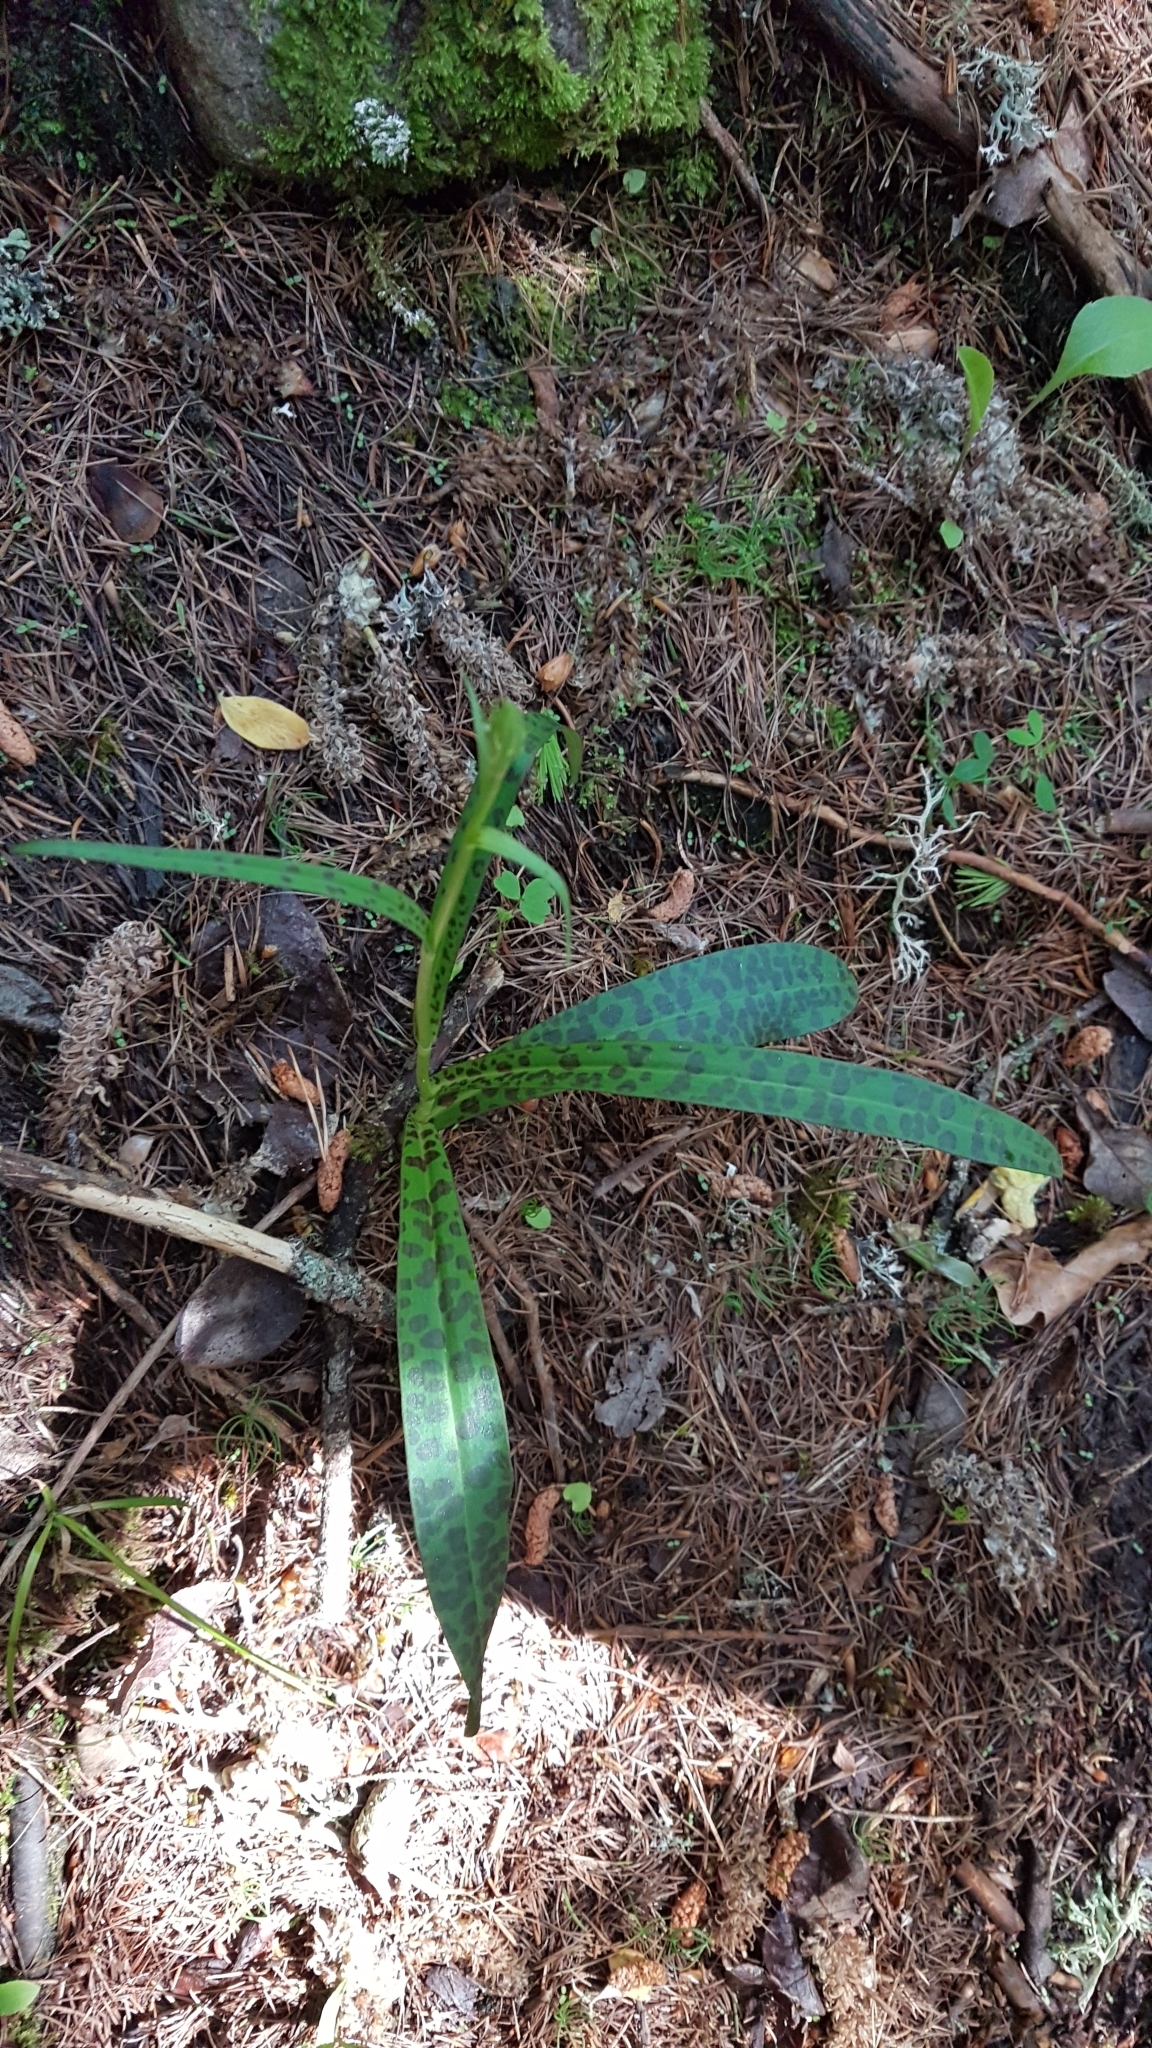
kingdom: Plantae
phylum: Tracheophyta
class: Liliopsida
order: Asparagales
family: Orchidaceae
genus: Dactylorhiza
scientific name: Dactylorhiza maculata
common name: Heath spotted-orchid
